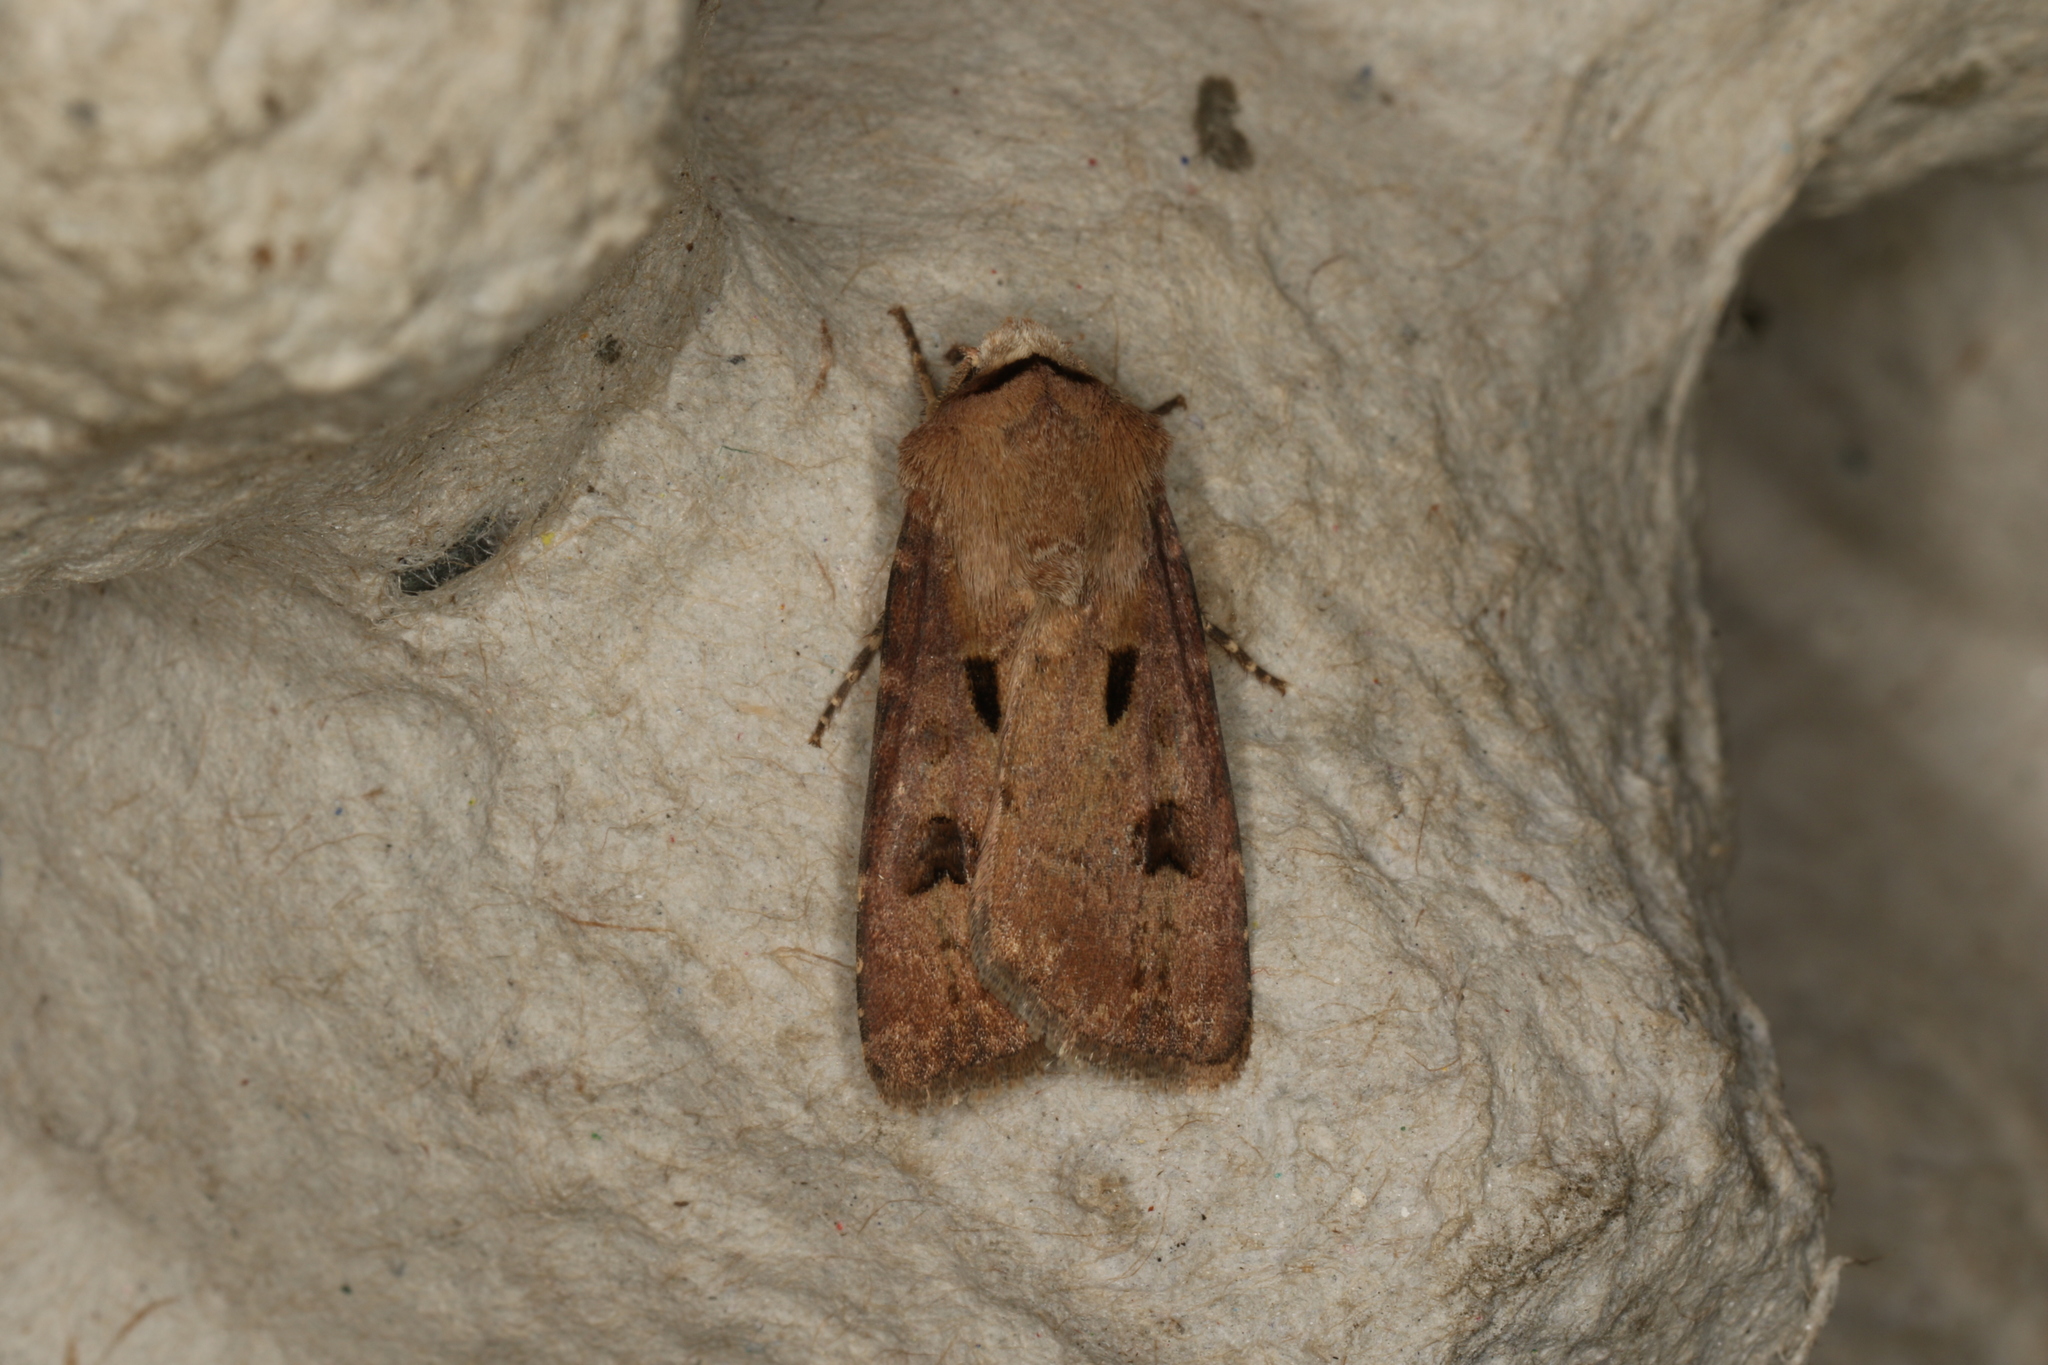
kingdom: Animalia
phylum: Arthropoda
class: Insecta
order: Lepidoptera
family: Noctuidae
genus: Agrotis
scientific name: Agrotis exclamationis
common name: Heart and dart
